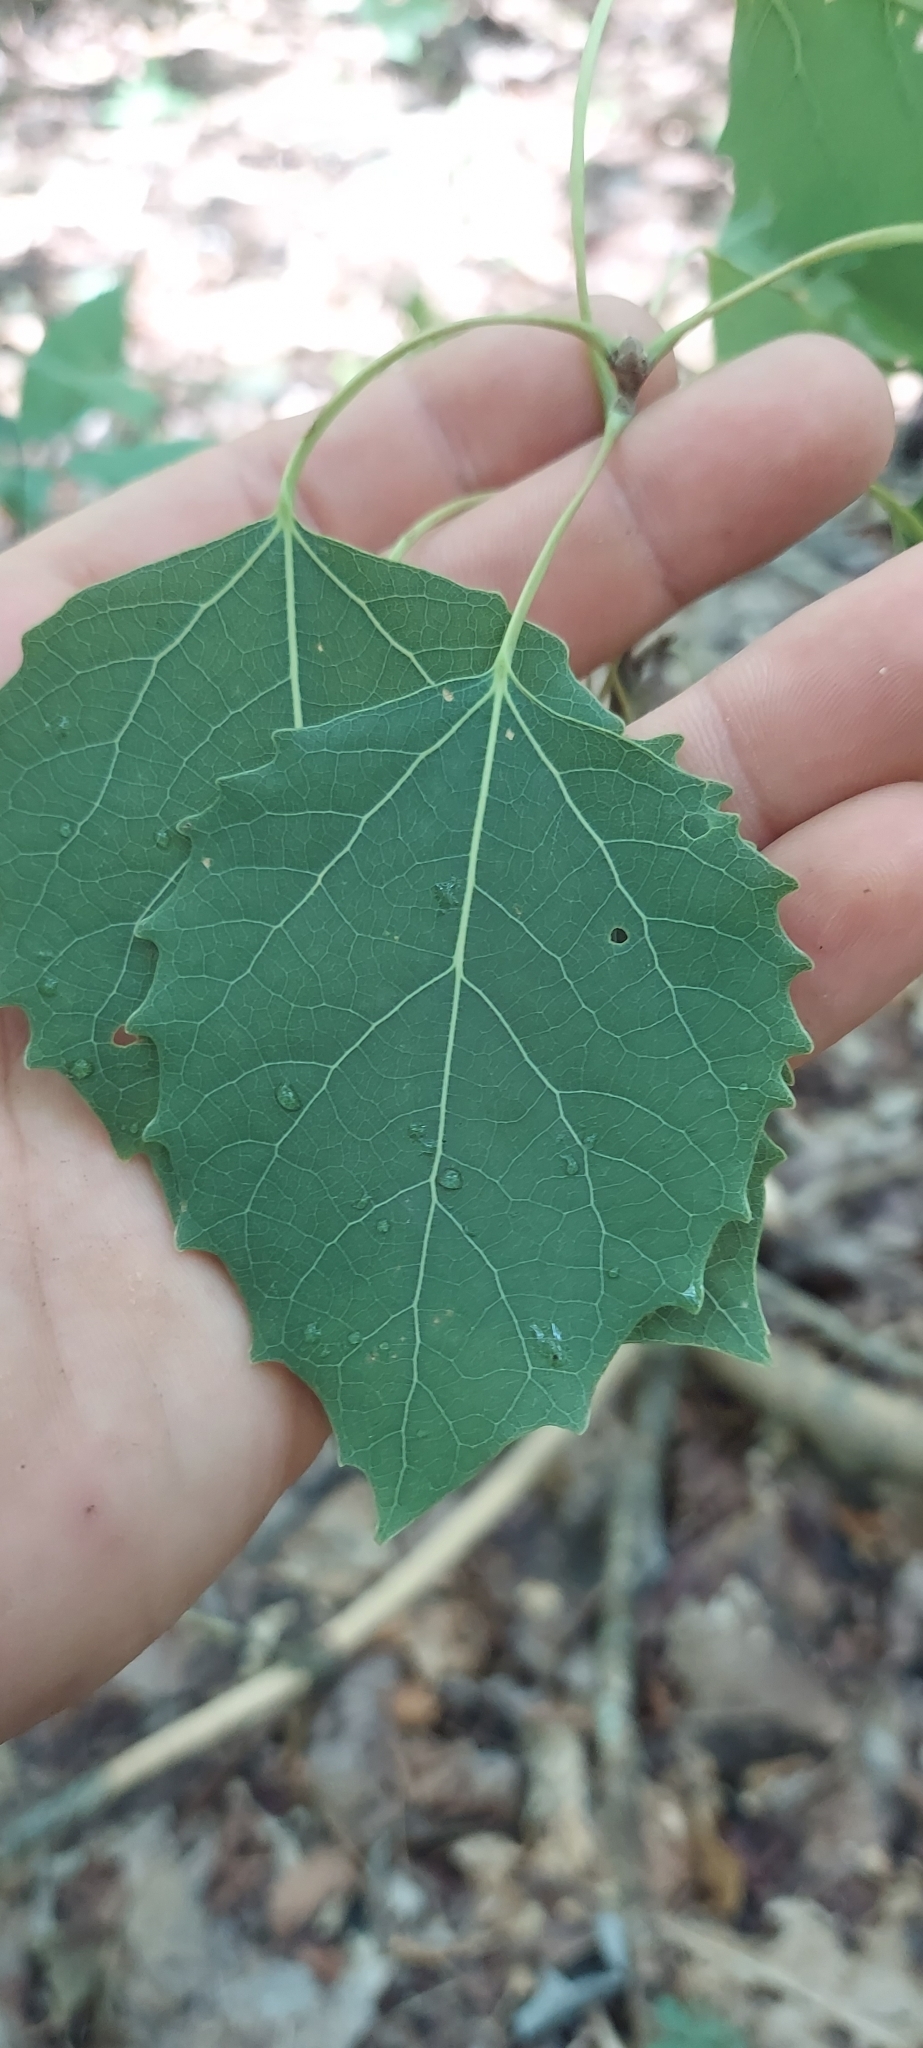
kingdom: Plantae
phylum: Tracheophyta
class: Magnoliopsida
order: Malpighiales
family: Salicaceae
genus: Populus
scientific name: Populus grandidentata
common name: Bigtooth aspen
